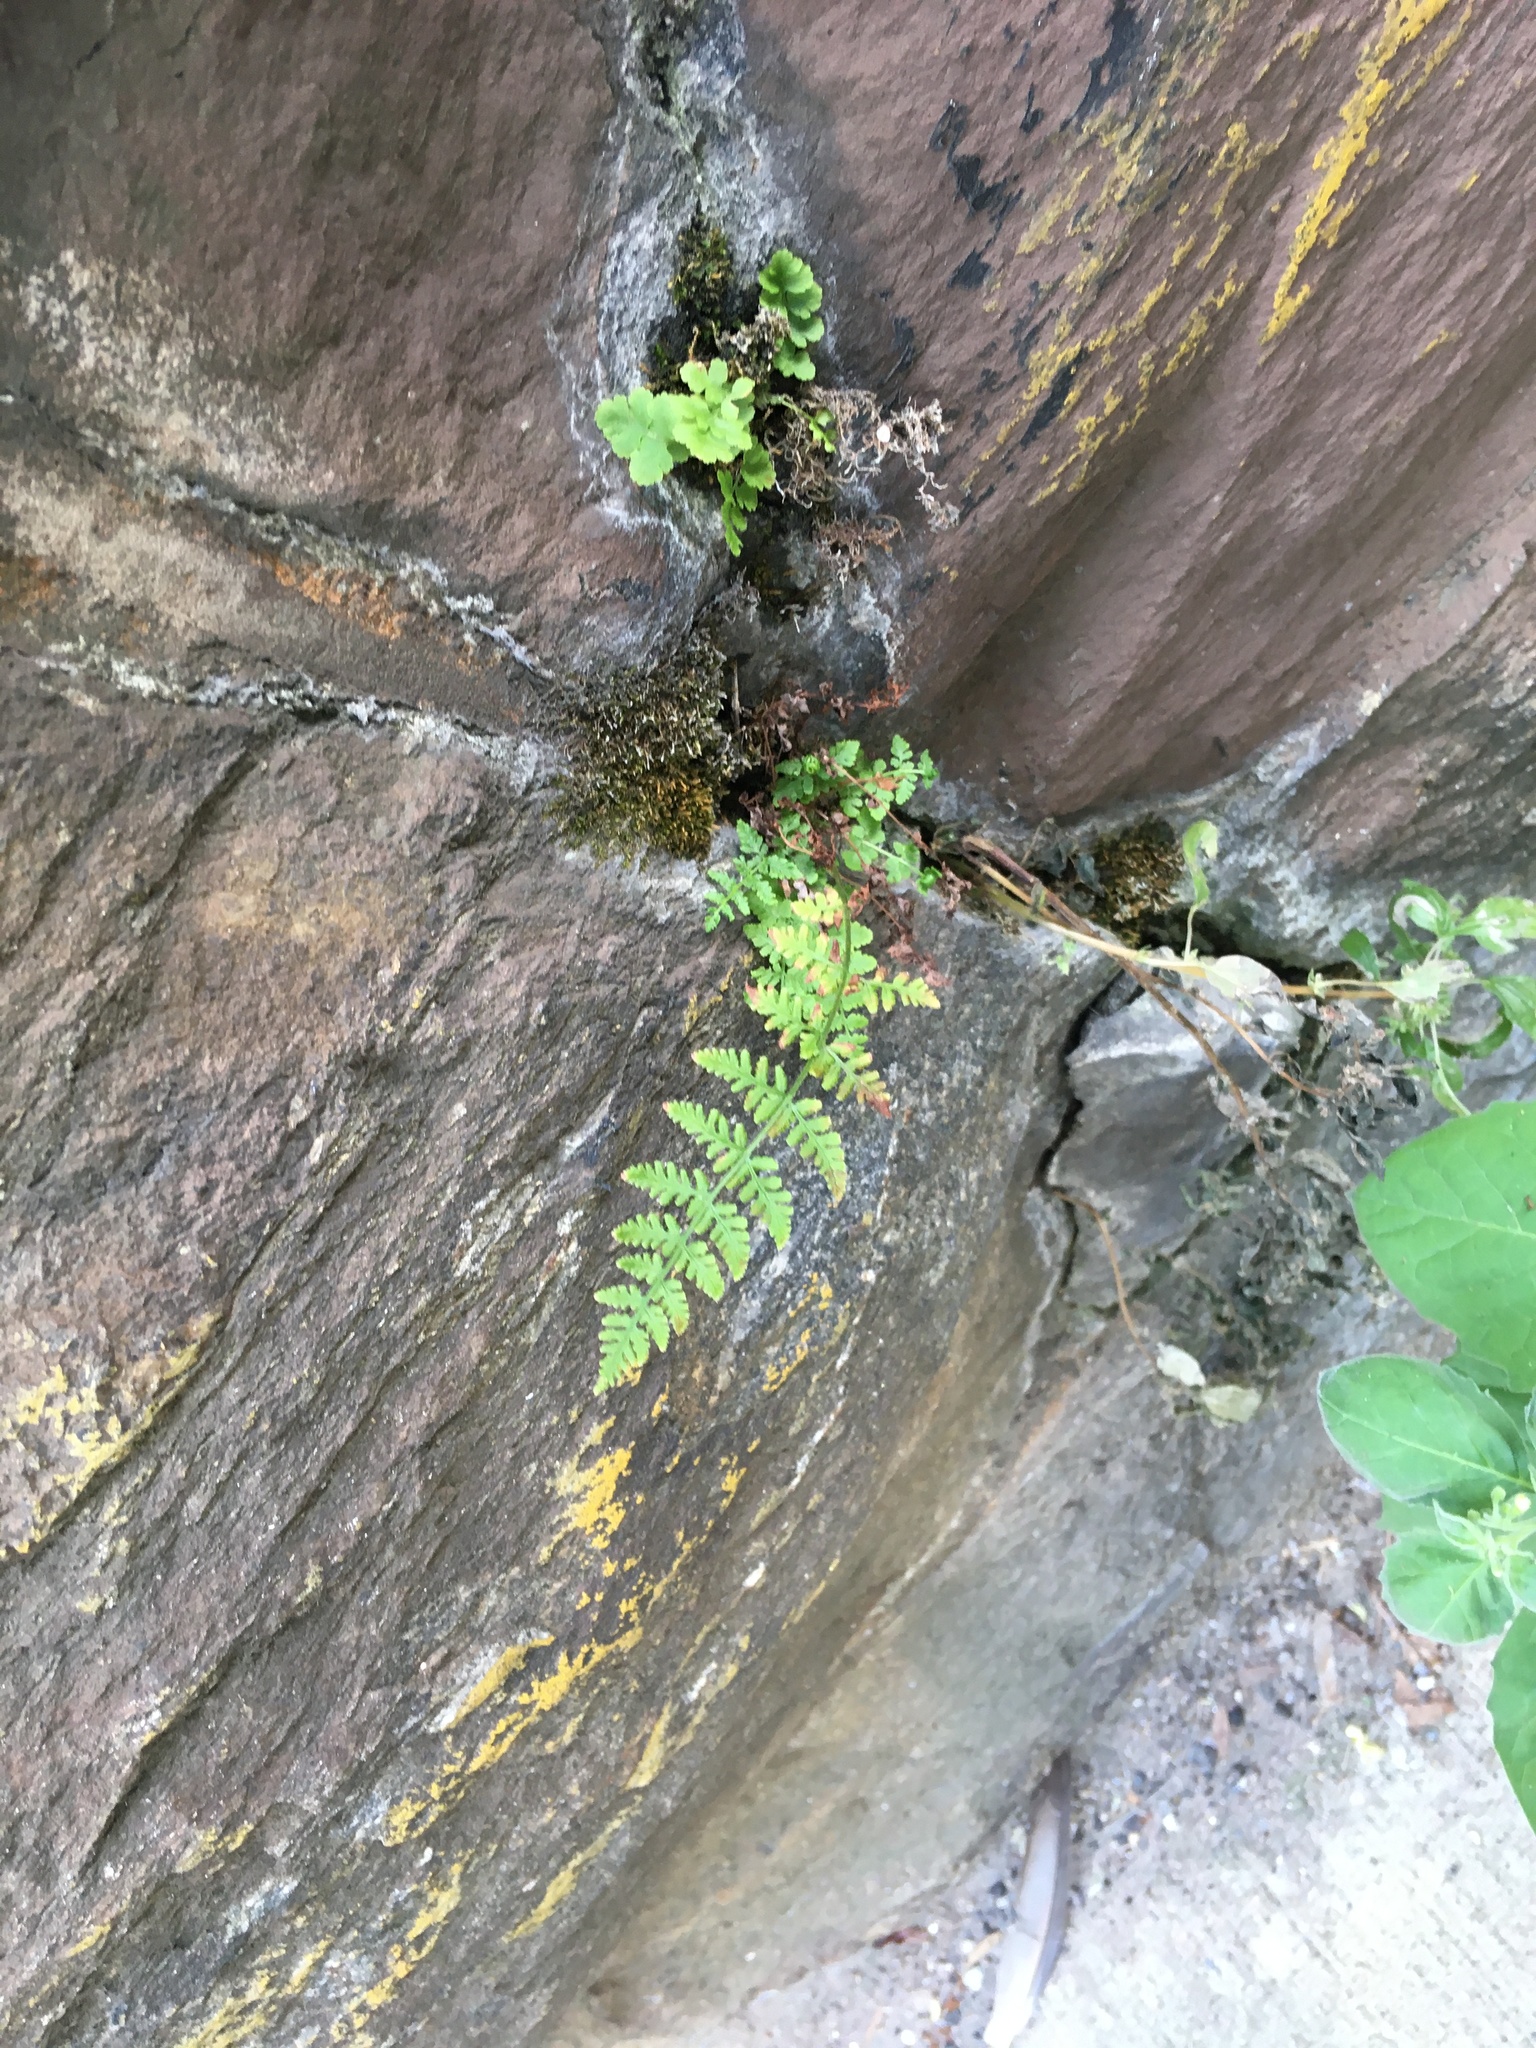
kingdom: Plantae
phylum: Tracheophyta
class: Polypodiopsida
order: Polypodiales
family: Woodsiaceae
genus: Physematium
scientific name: Physematium obtusum
